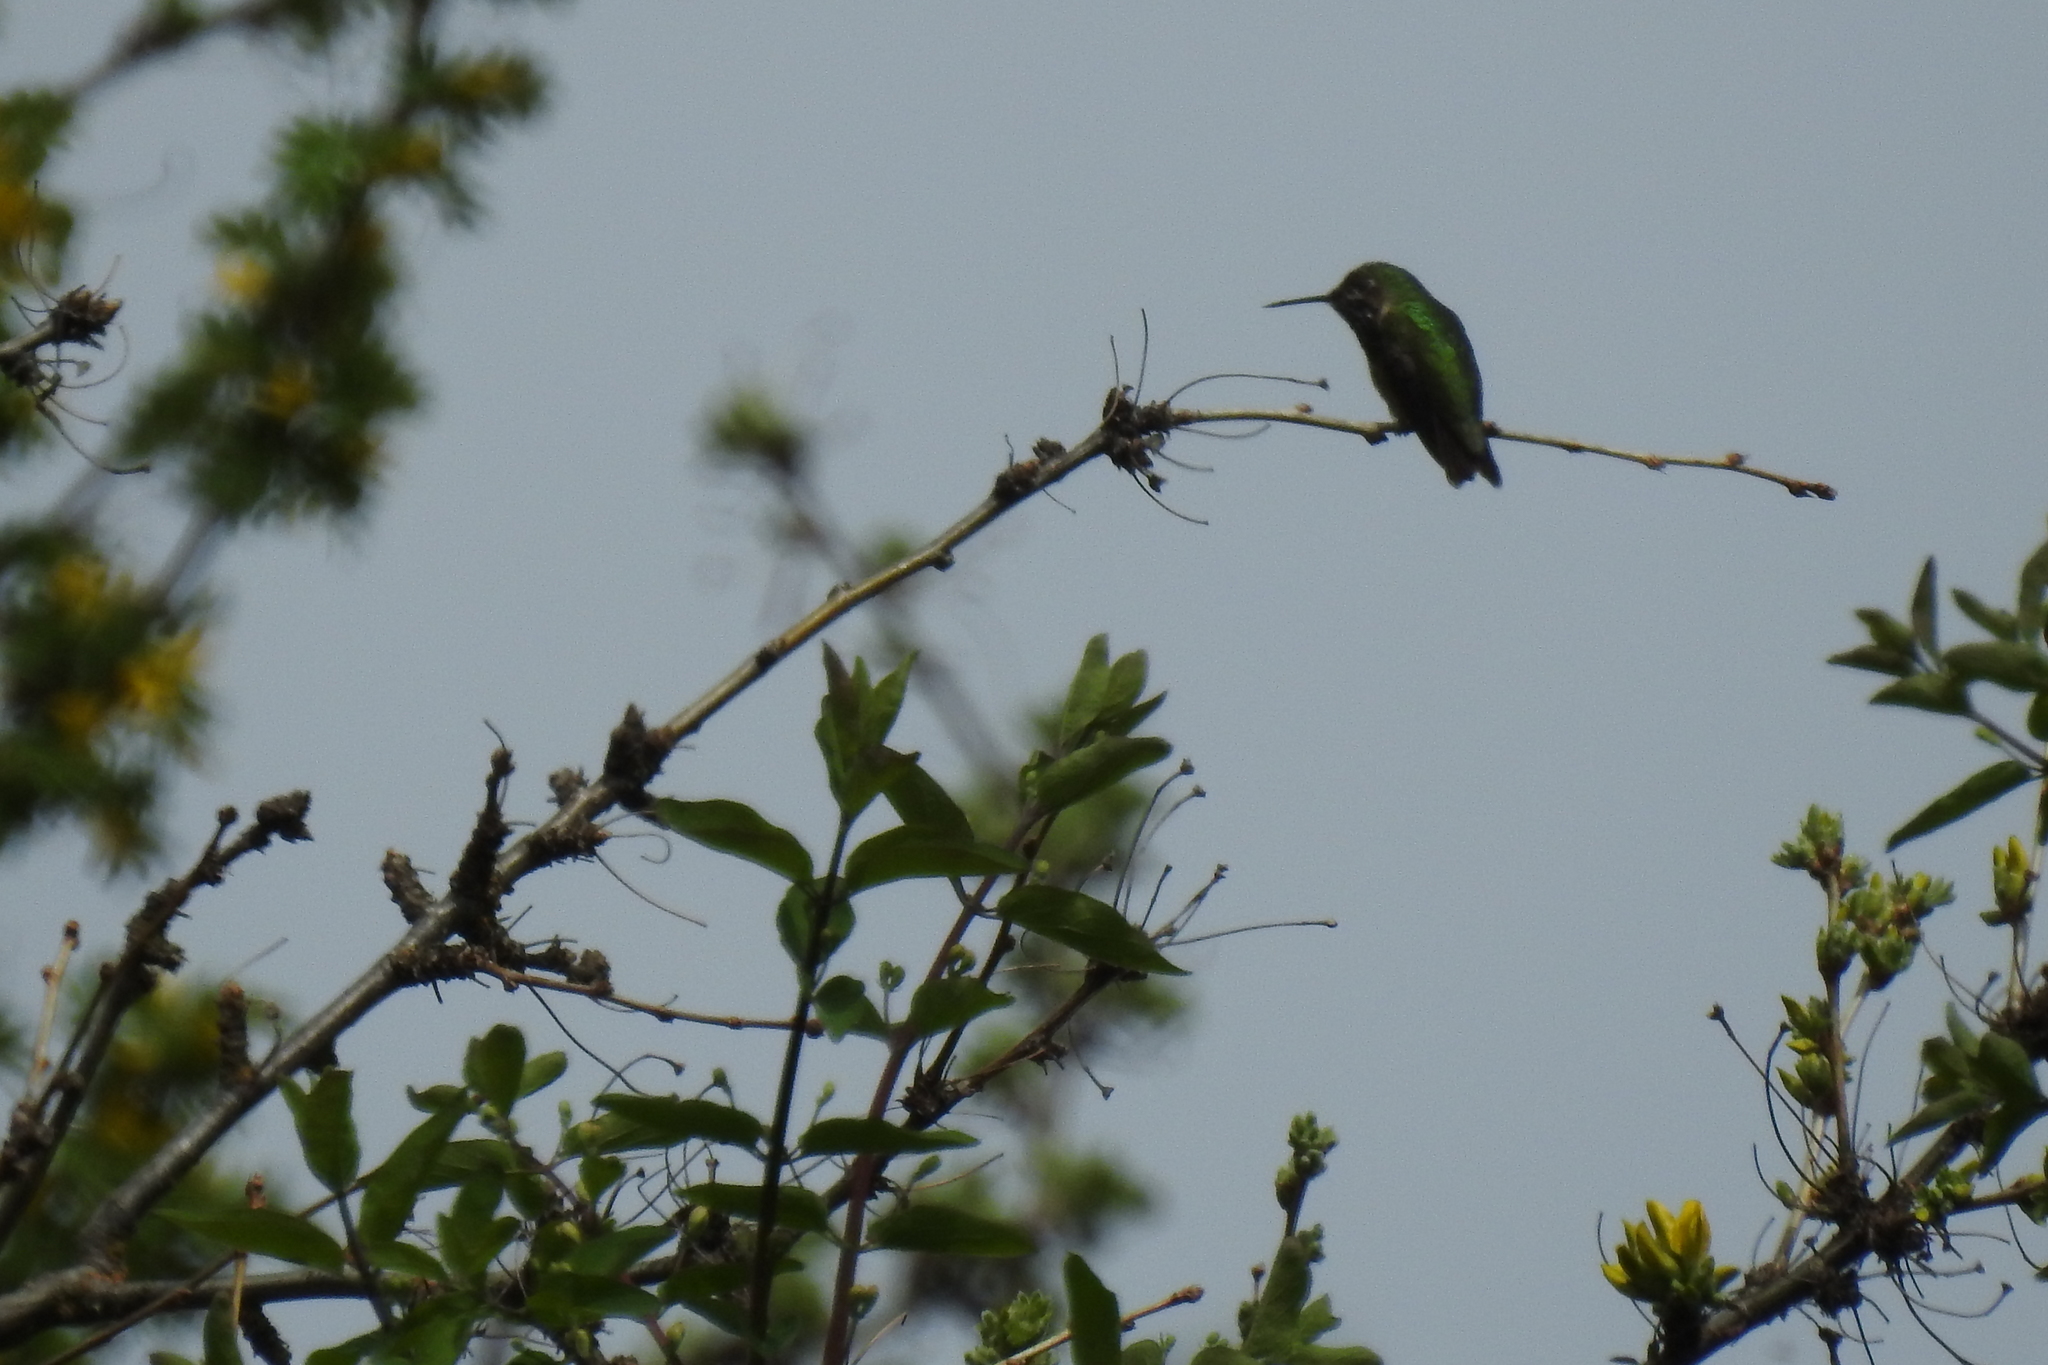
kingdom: Animalia
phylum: Chordata
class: Aves
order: Apodiformes
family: Trochilidae
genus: Selasphorus
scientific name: Selasphorus calliope
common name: Calliope hummingbird
